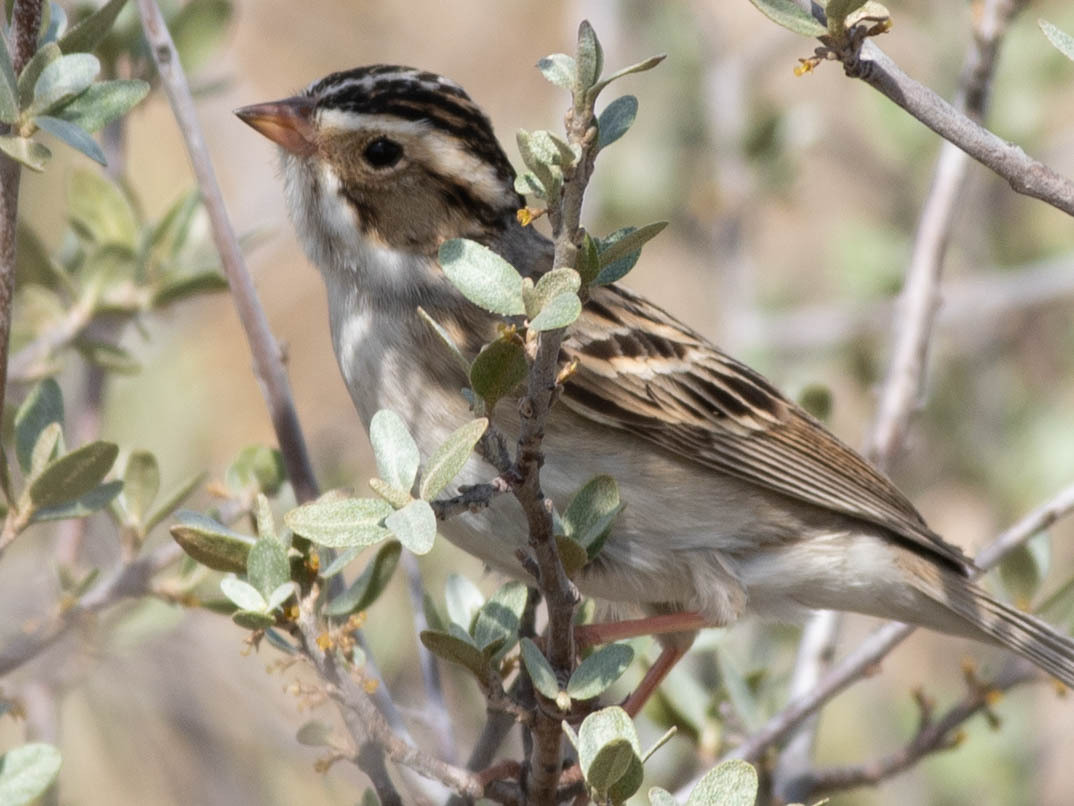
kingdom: Animalia
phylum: Chordata
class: Aves
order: Passeriformes
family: Passerellidae
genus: Spizella
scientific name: Spizella pallida
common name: Clay-colored sparrow
